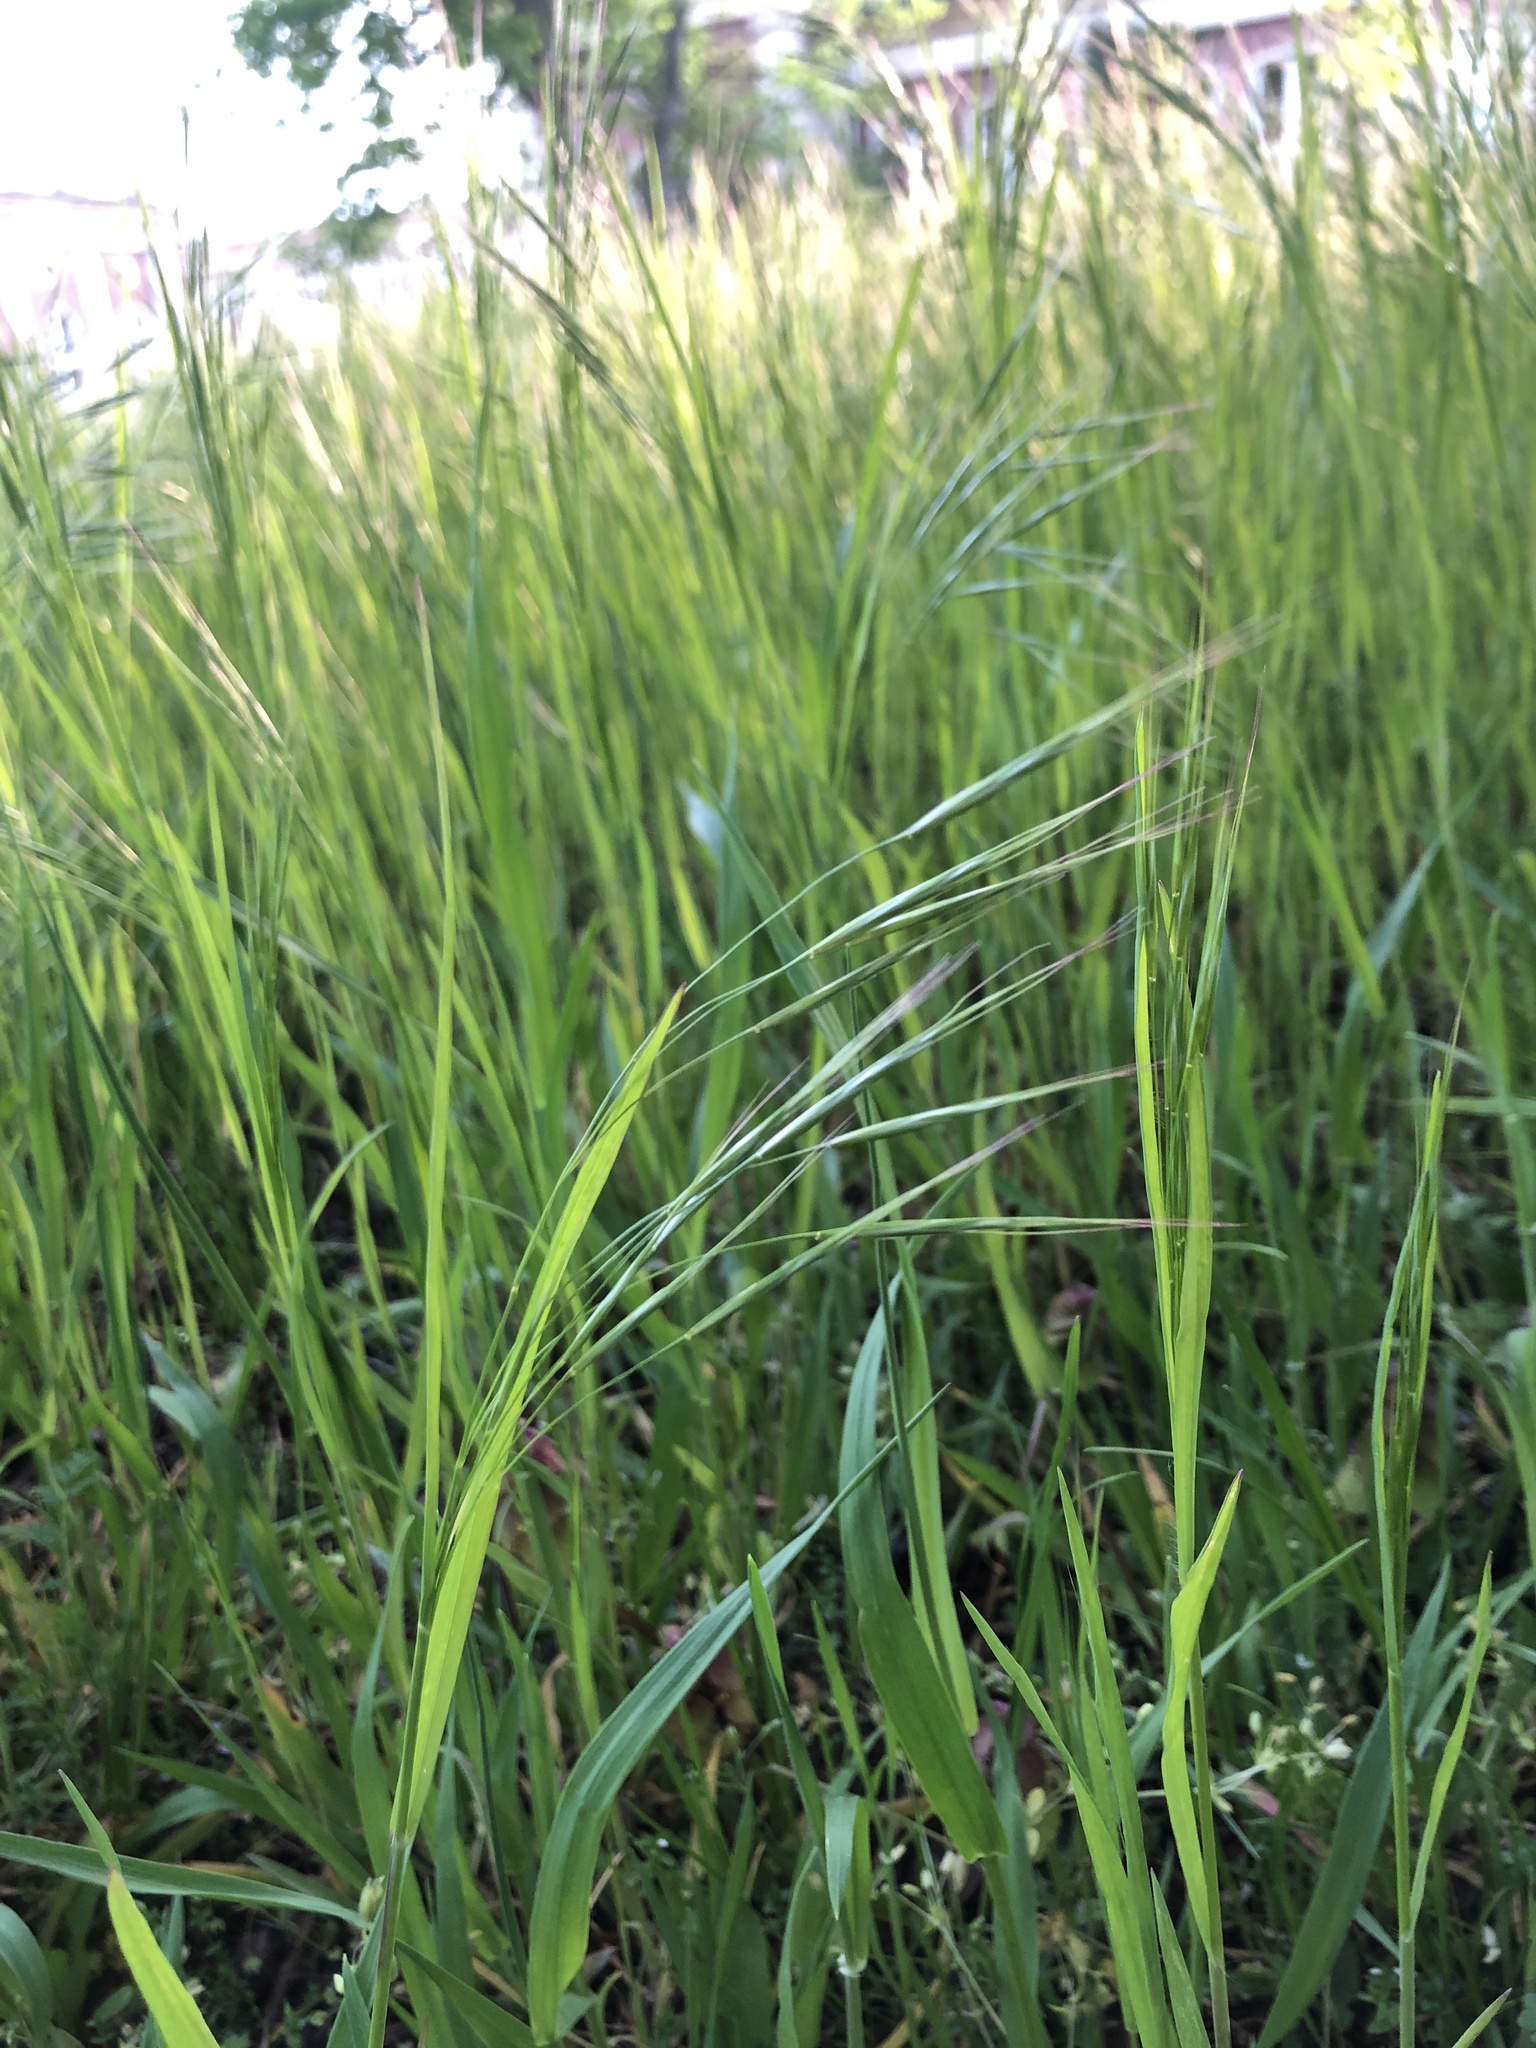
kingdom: Plantae
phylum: Tracheophyta
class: Liliopsida
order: Poales
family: Poaceae
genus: Bromus
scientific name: Bromus sterilis
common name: Poverty brome
